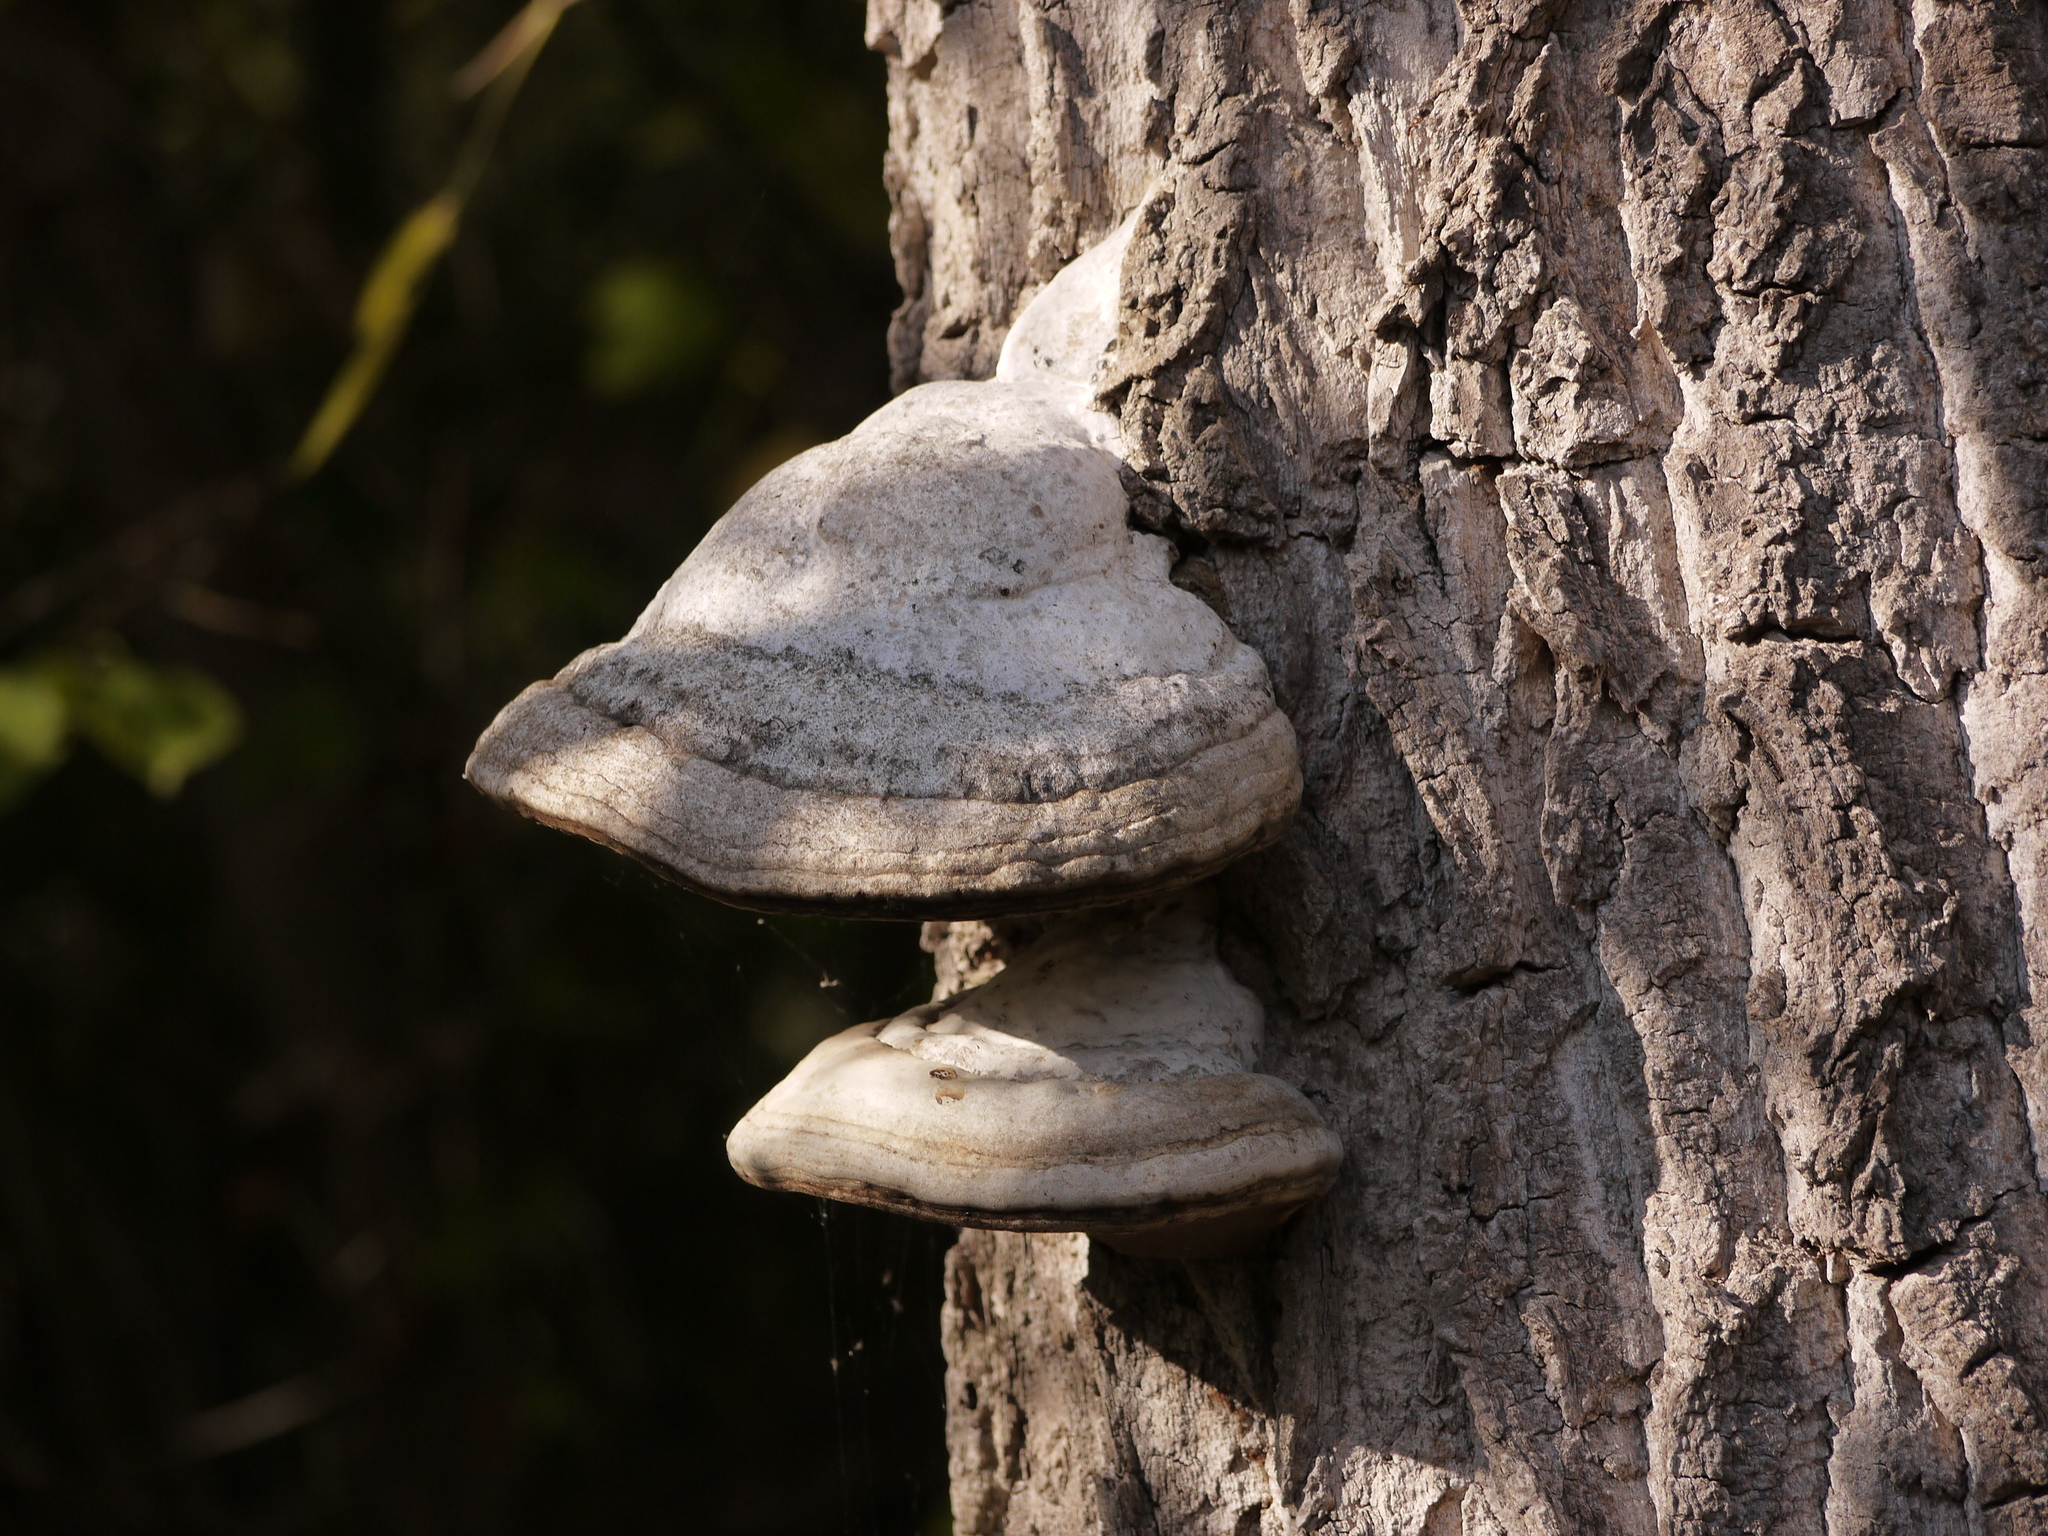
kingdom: Fungi
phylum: Basidiomycota
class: Agaricomycetes
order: Polyporales
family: Polyporaceae
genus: Fomes
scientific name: Fomes fomentarius
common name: Hoof fungus
